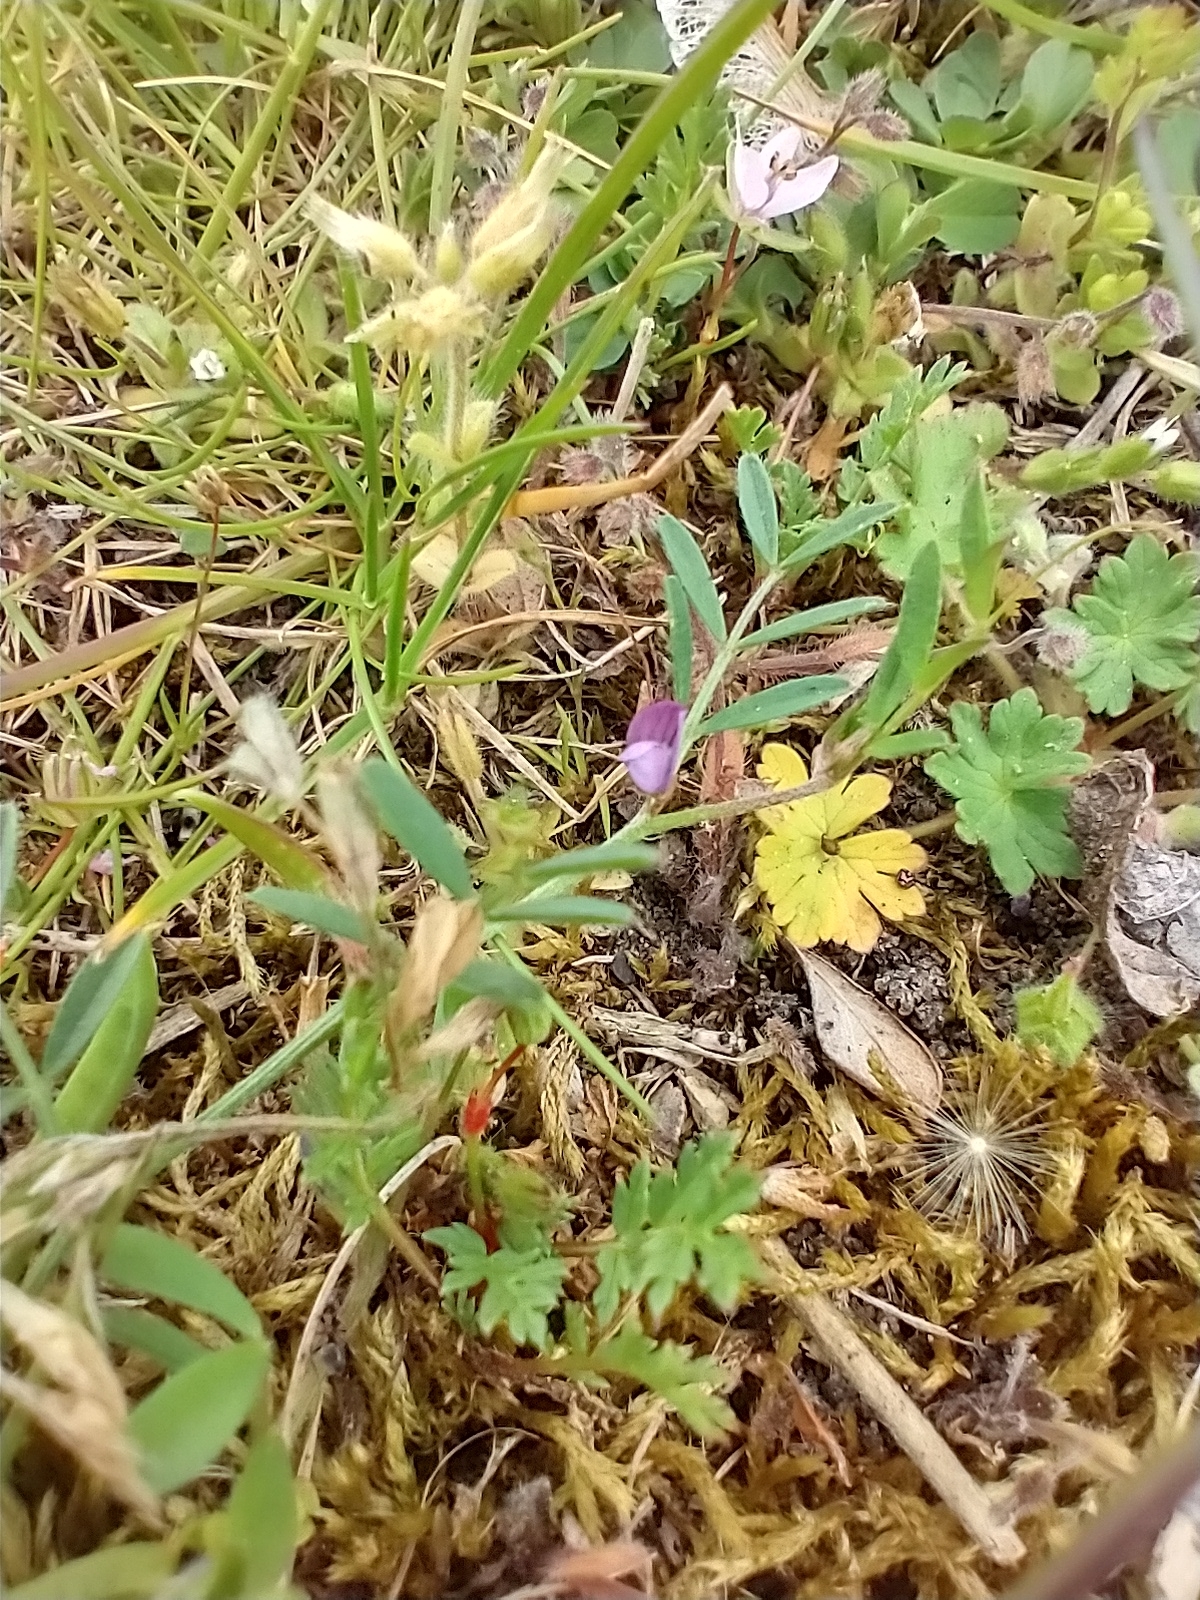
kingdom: Plantae
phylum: Tracheophyta
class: Magnoliopsida
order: Fabales
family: Fabaceae
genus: Vicia
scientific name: Vicia lathyroides
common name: Spring vetch
